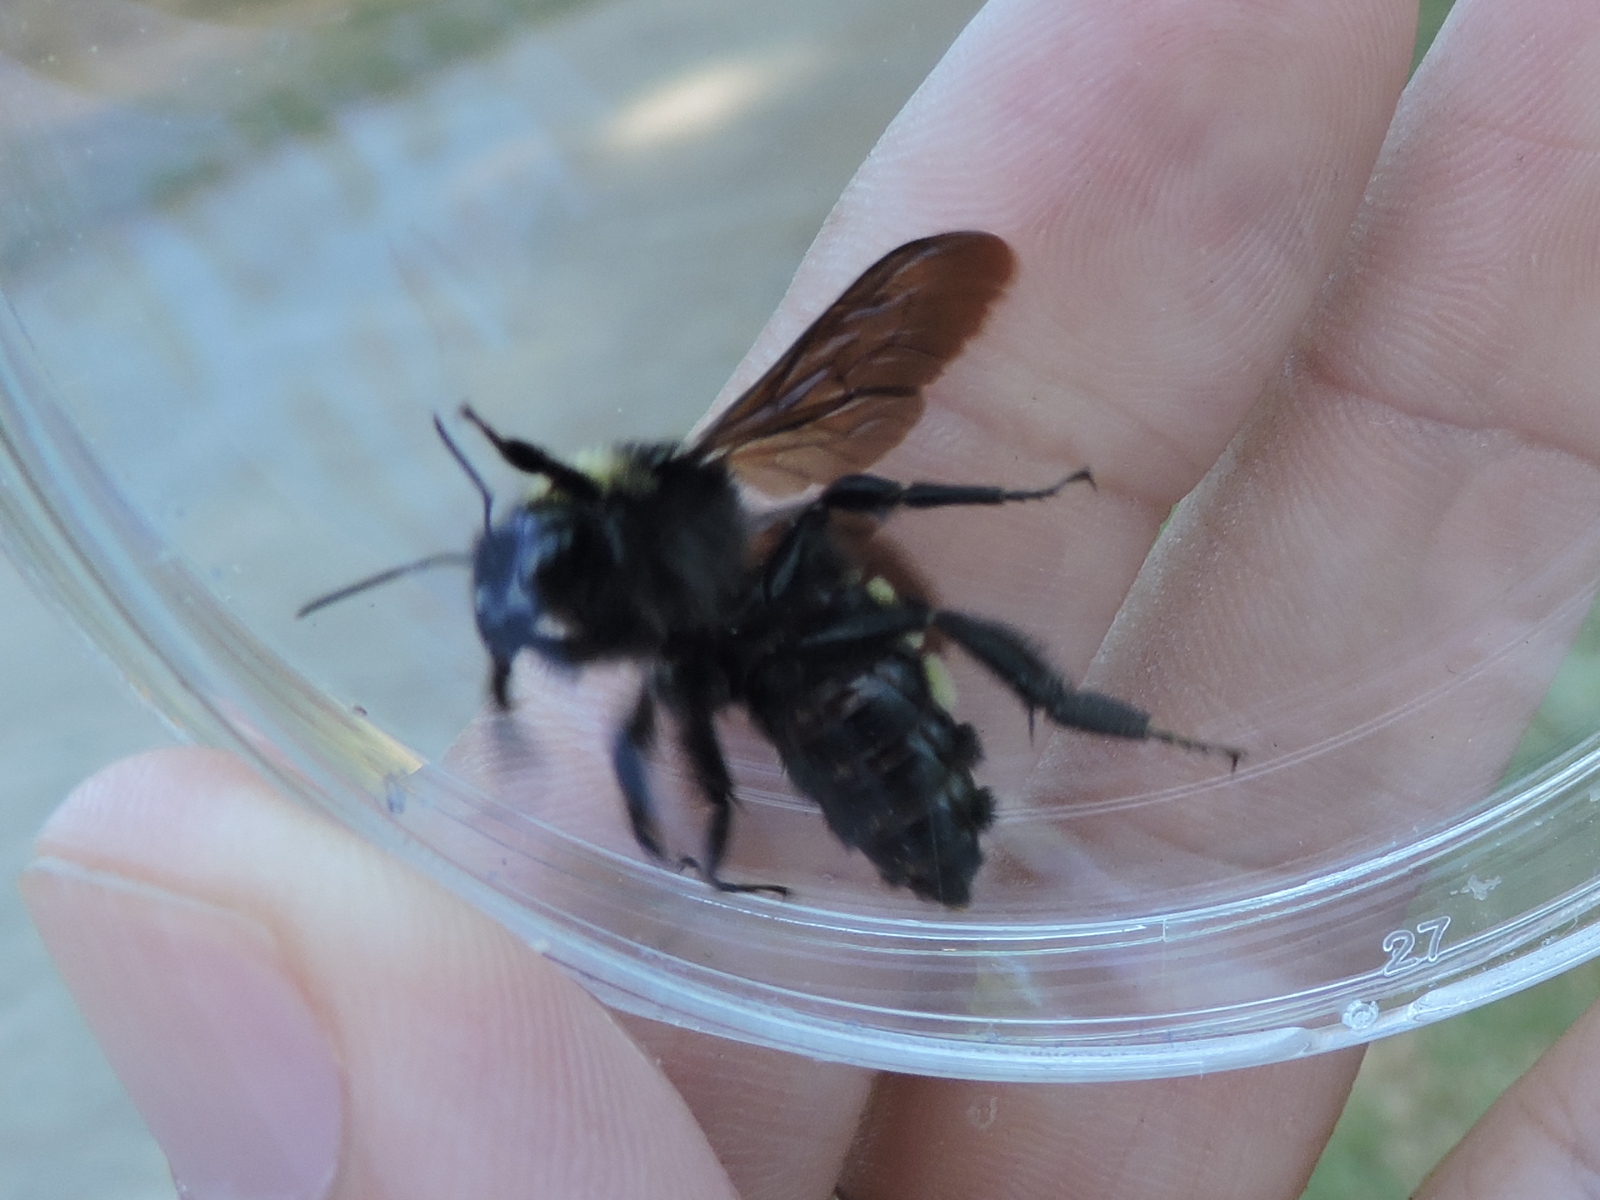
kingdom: Animalia
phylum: Arthropoda
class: Insecta
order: Hymenoptera
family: Apidae
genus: Bombus
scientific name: Bombus pensylvanicus
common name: Bumble bee
